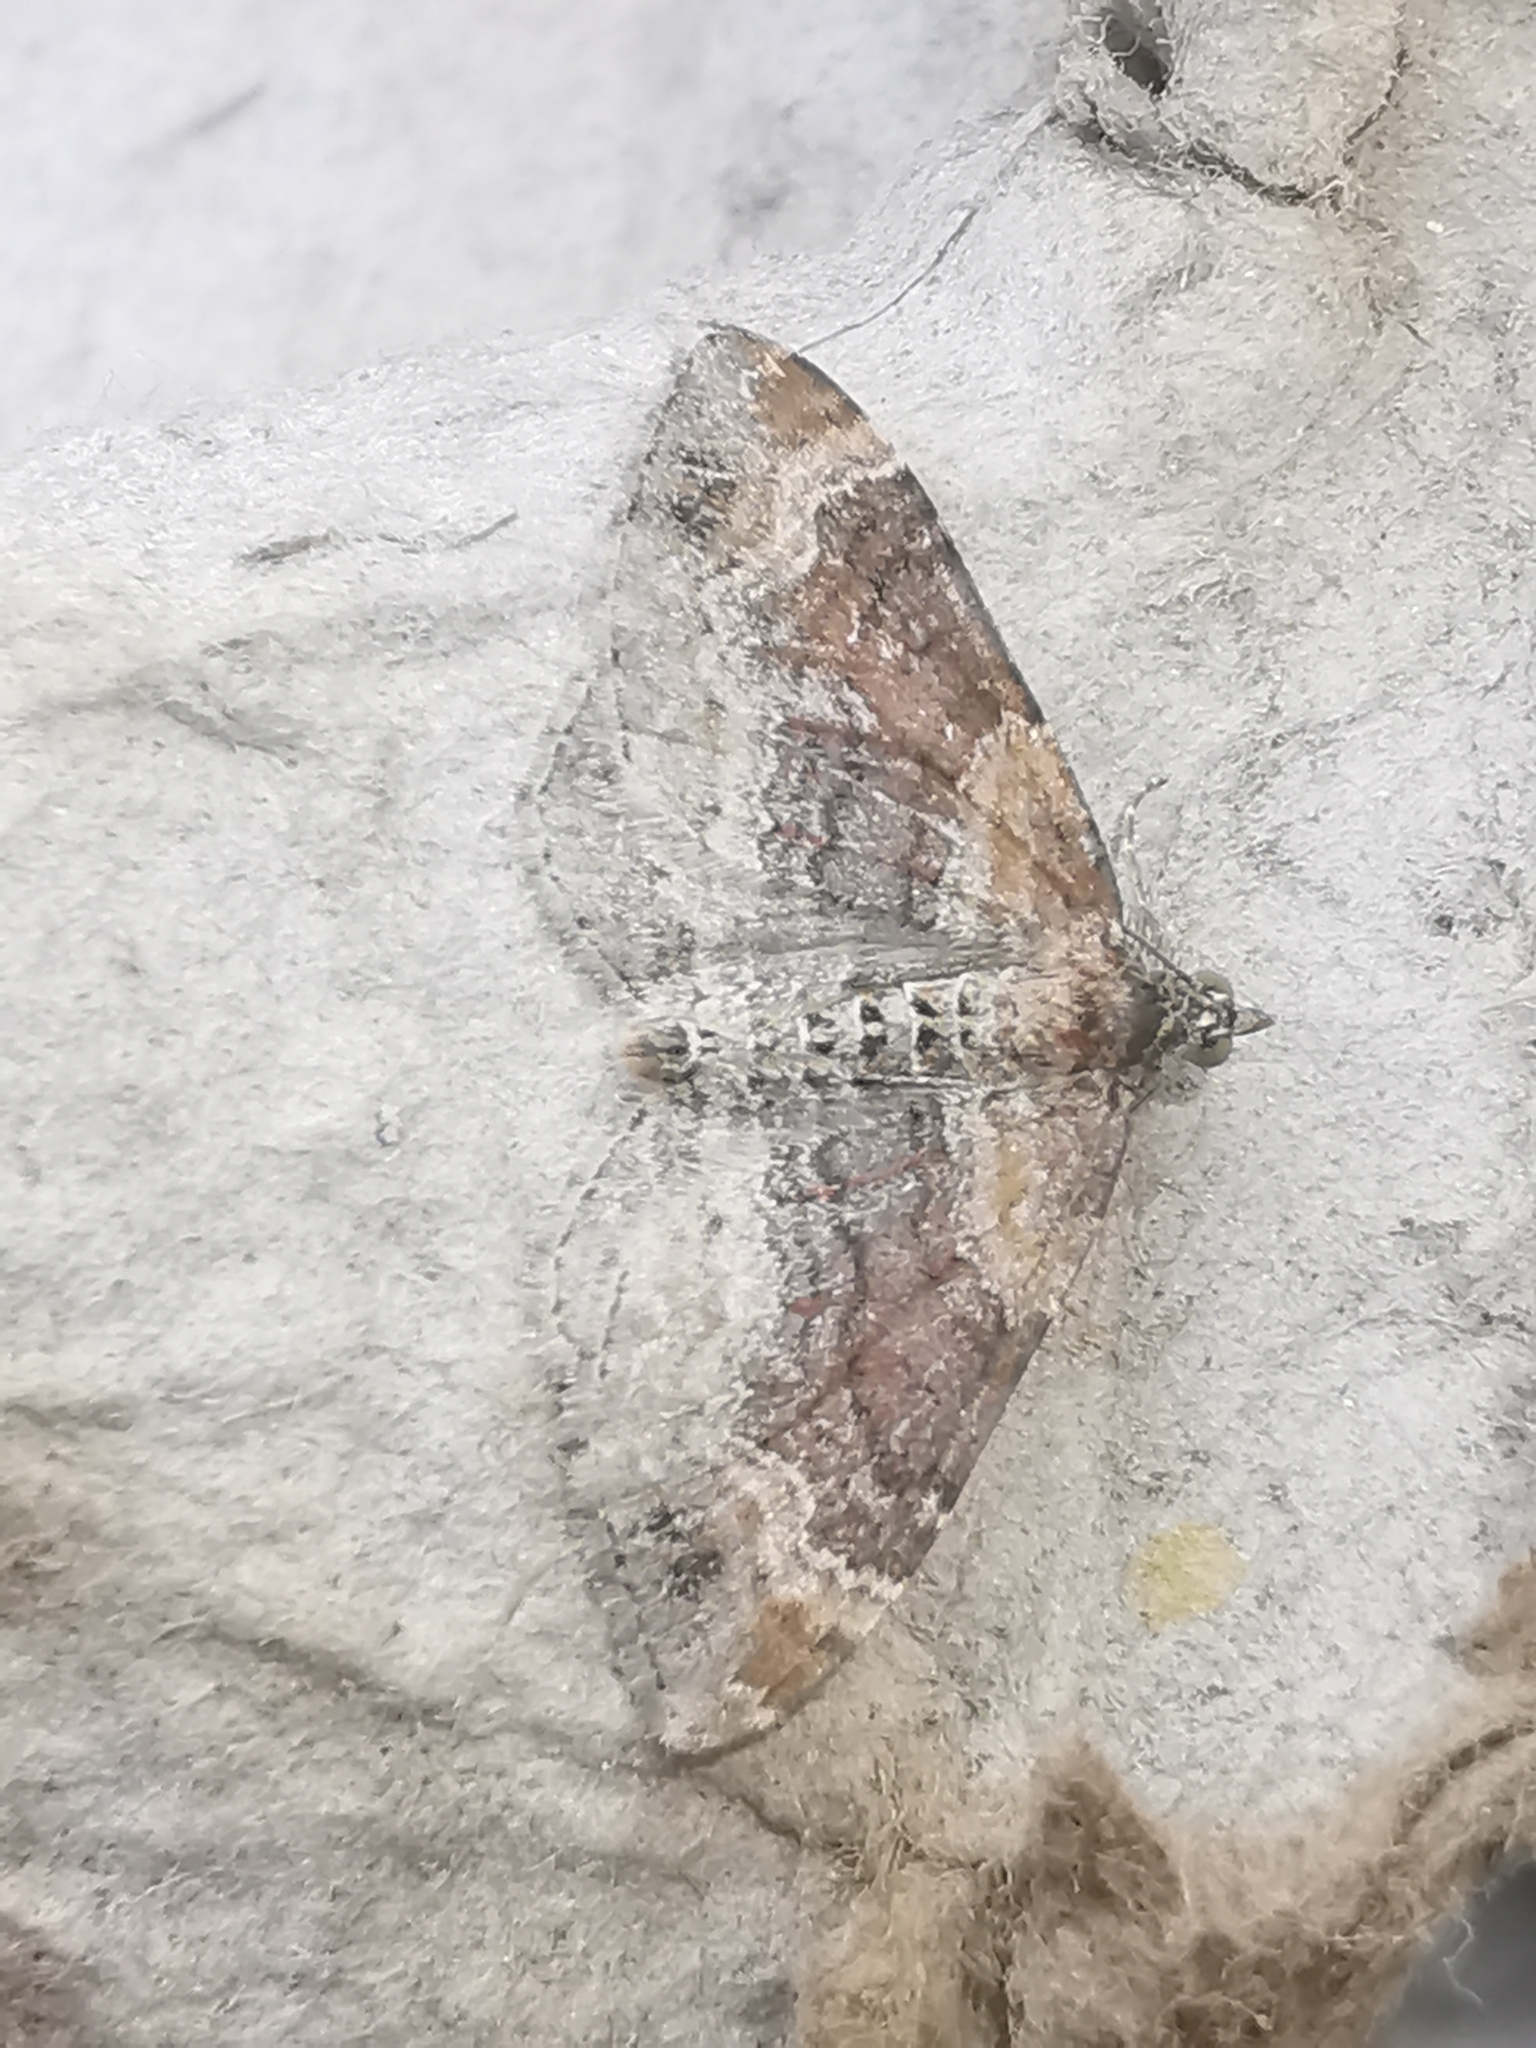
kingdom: Animalia
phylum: Arthropoda
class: Insecta
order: Lepidoptera
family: Geometridae
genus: Xanthorhoe
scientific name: Xanthorhoe spadicearia
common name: Red twin-spot carpet
